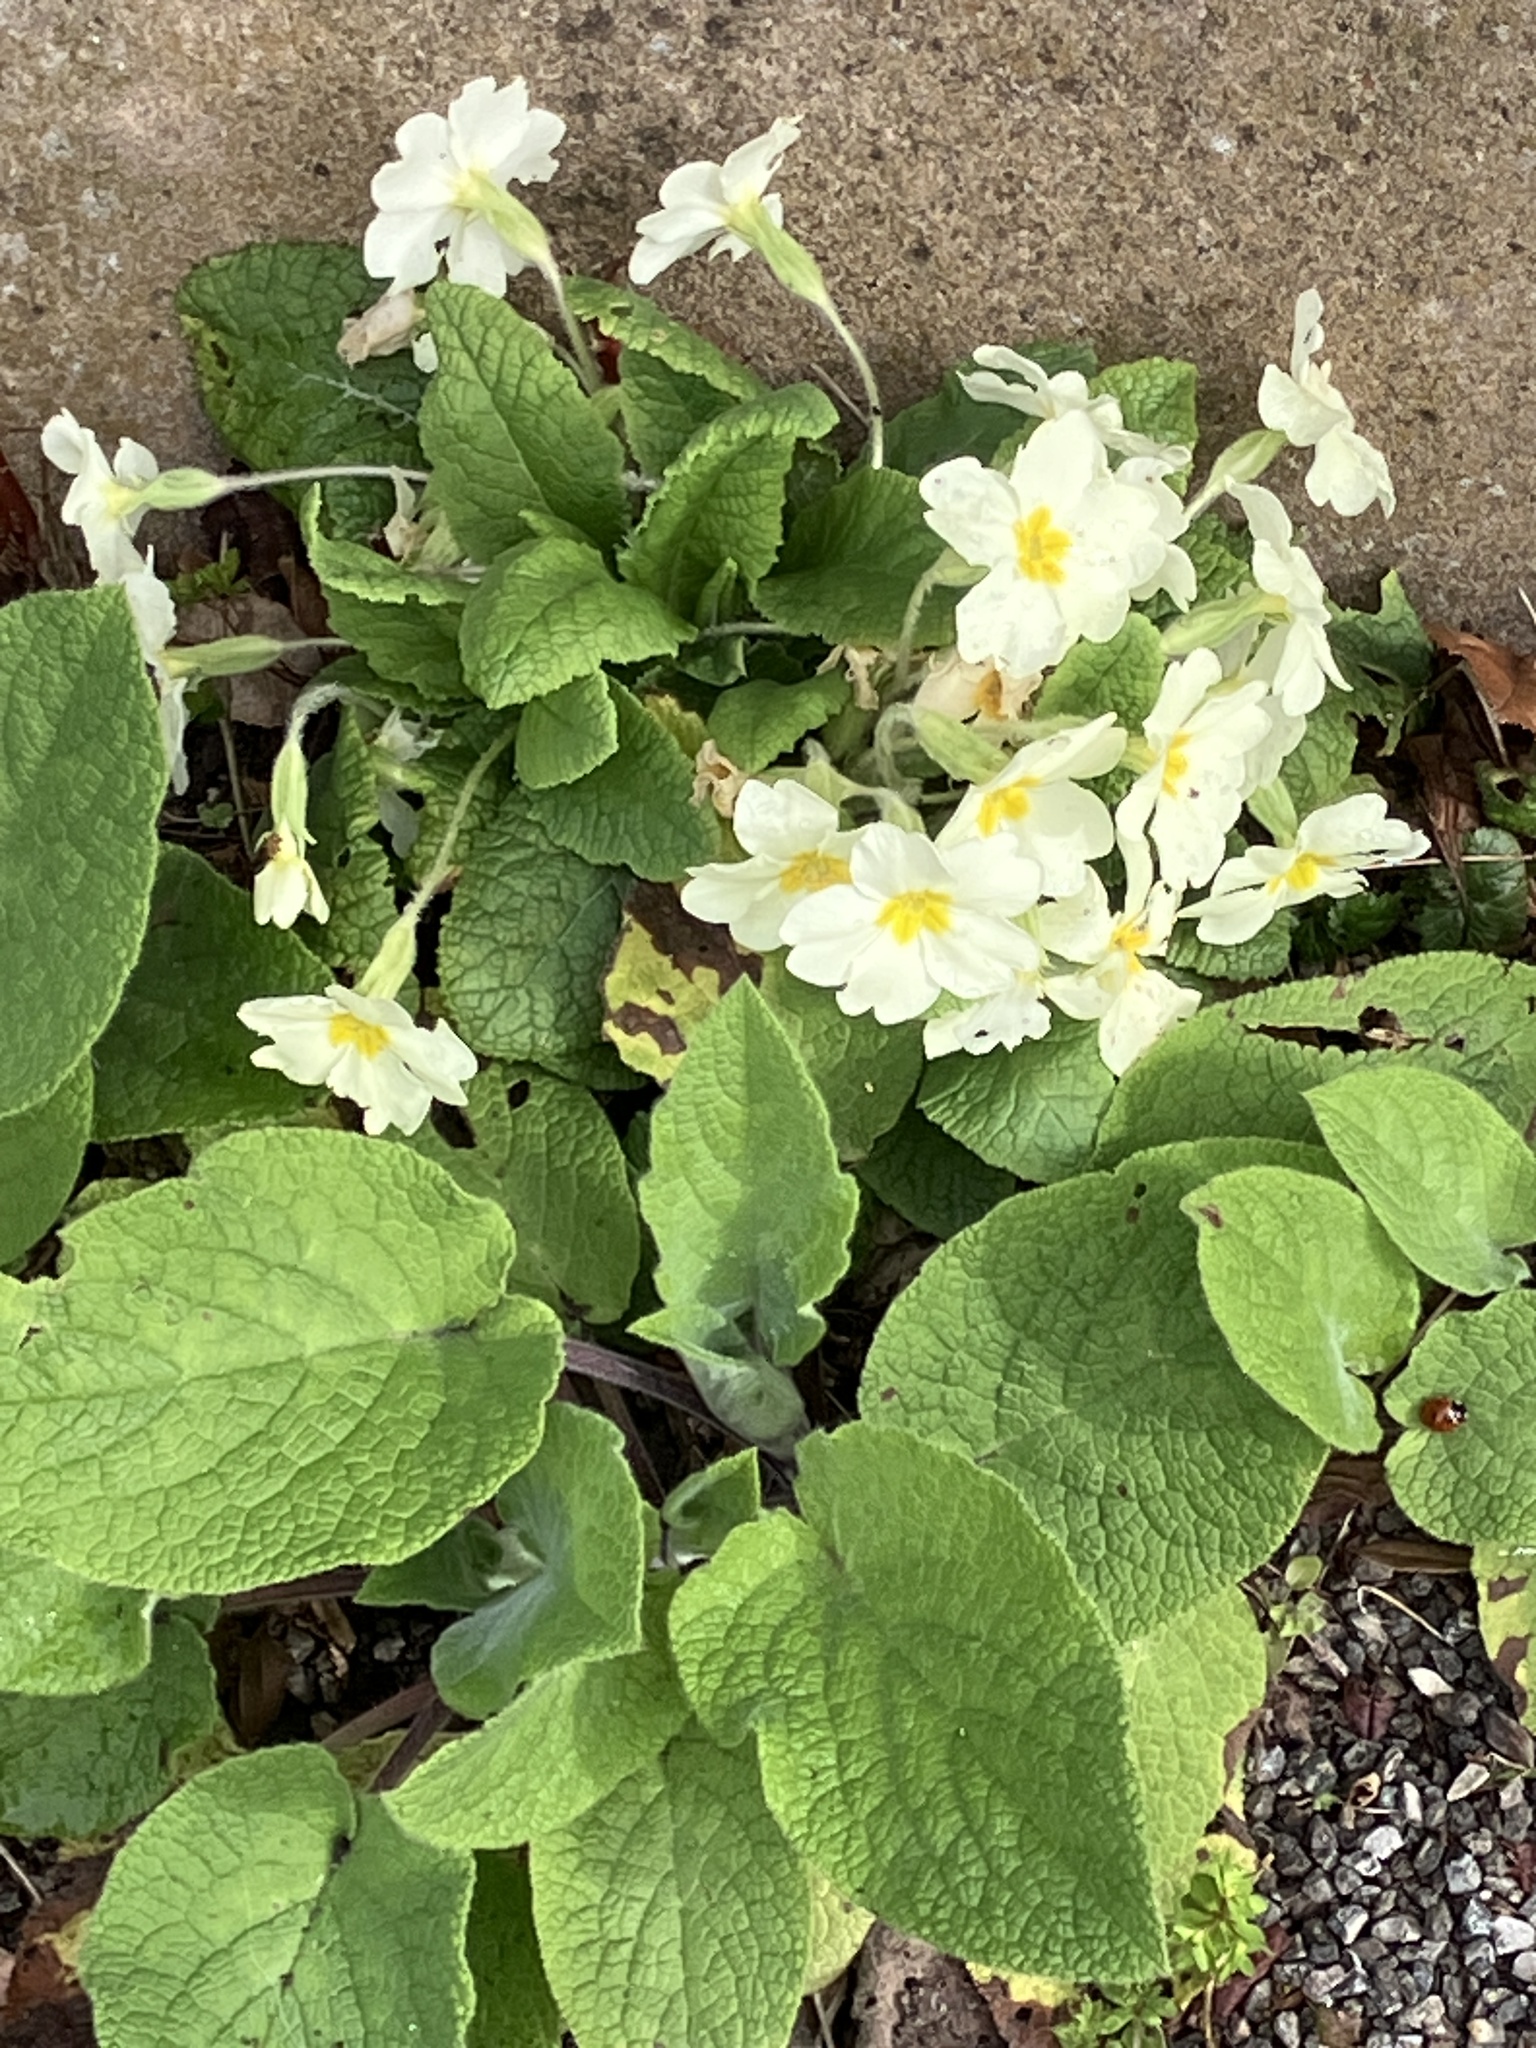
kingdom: Plantae
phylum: Tracheophyta
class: Magnoliopsida
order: Ericales
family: Primulaceae
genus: Primula
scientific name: Primula vulgaris
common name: Primrose
